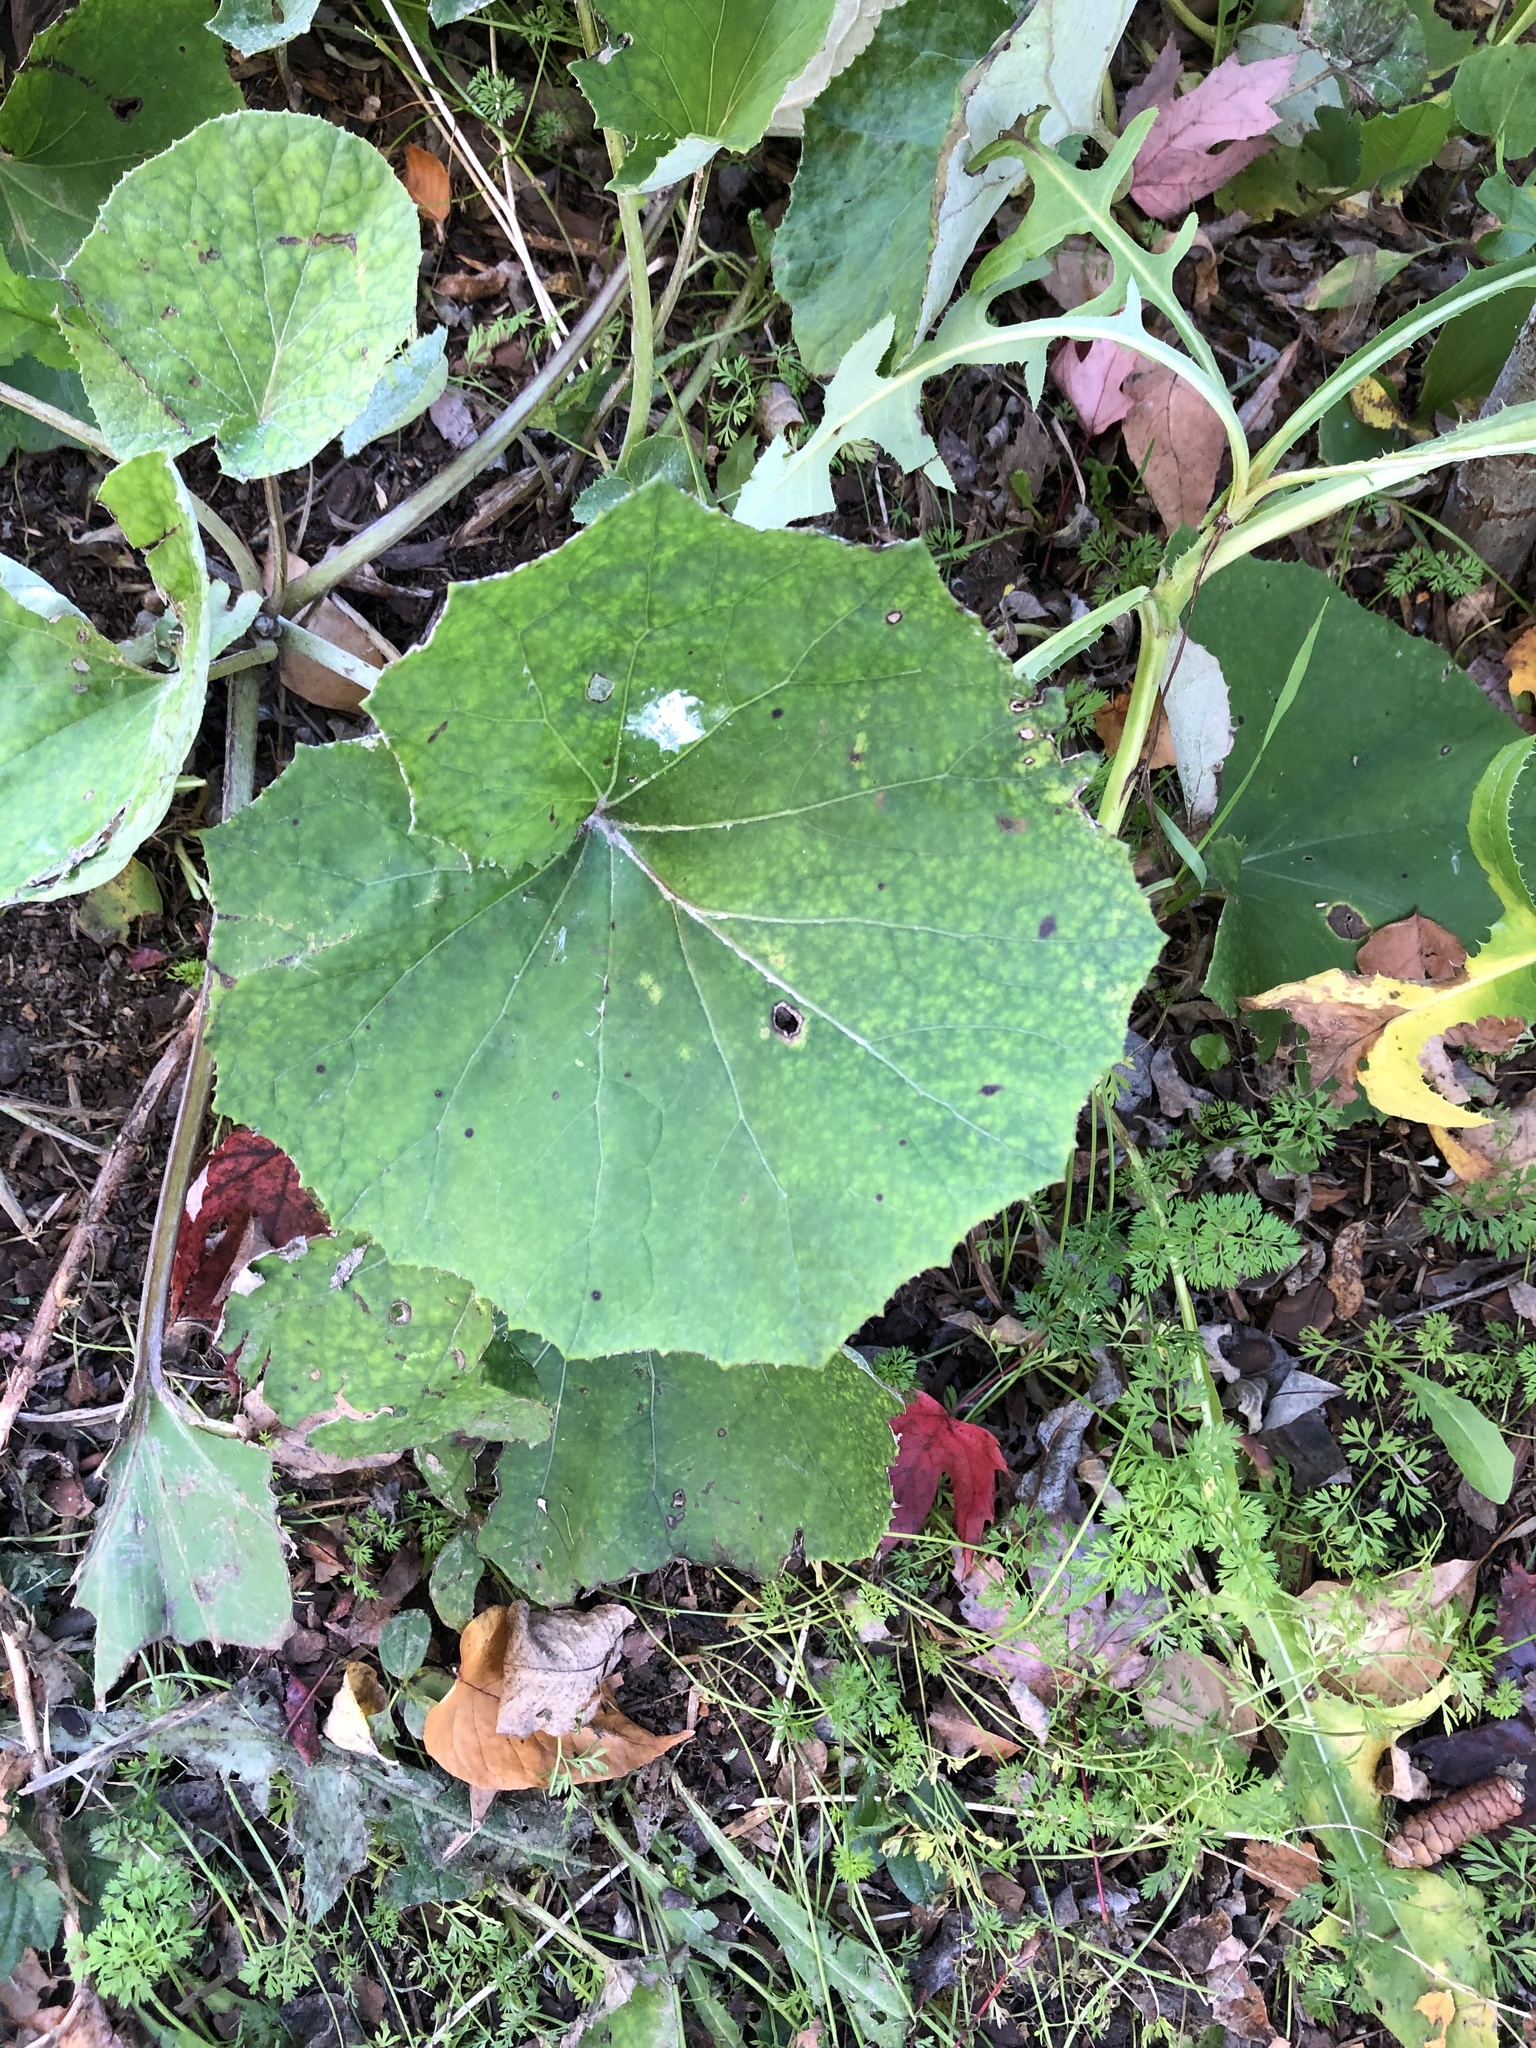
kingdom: Plantae
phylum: Tracheophyta
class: Magnoliopsida
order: Asterales
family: Asteraceae
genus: Tussilago
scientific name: Tussilago farfara
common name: Coltsfoot
